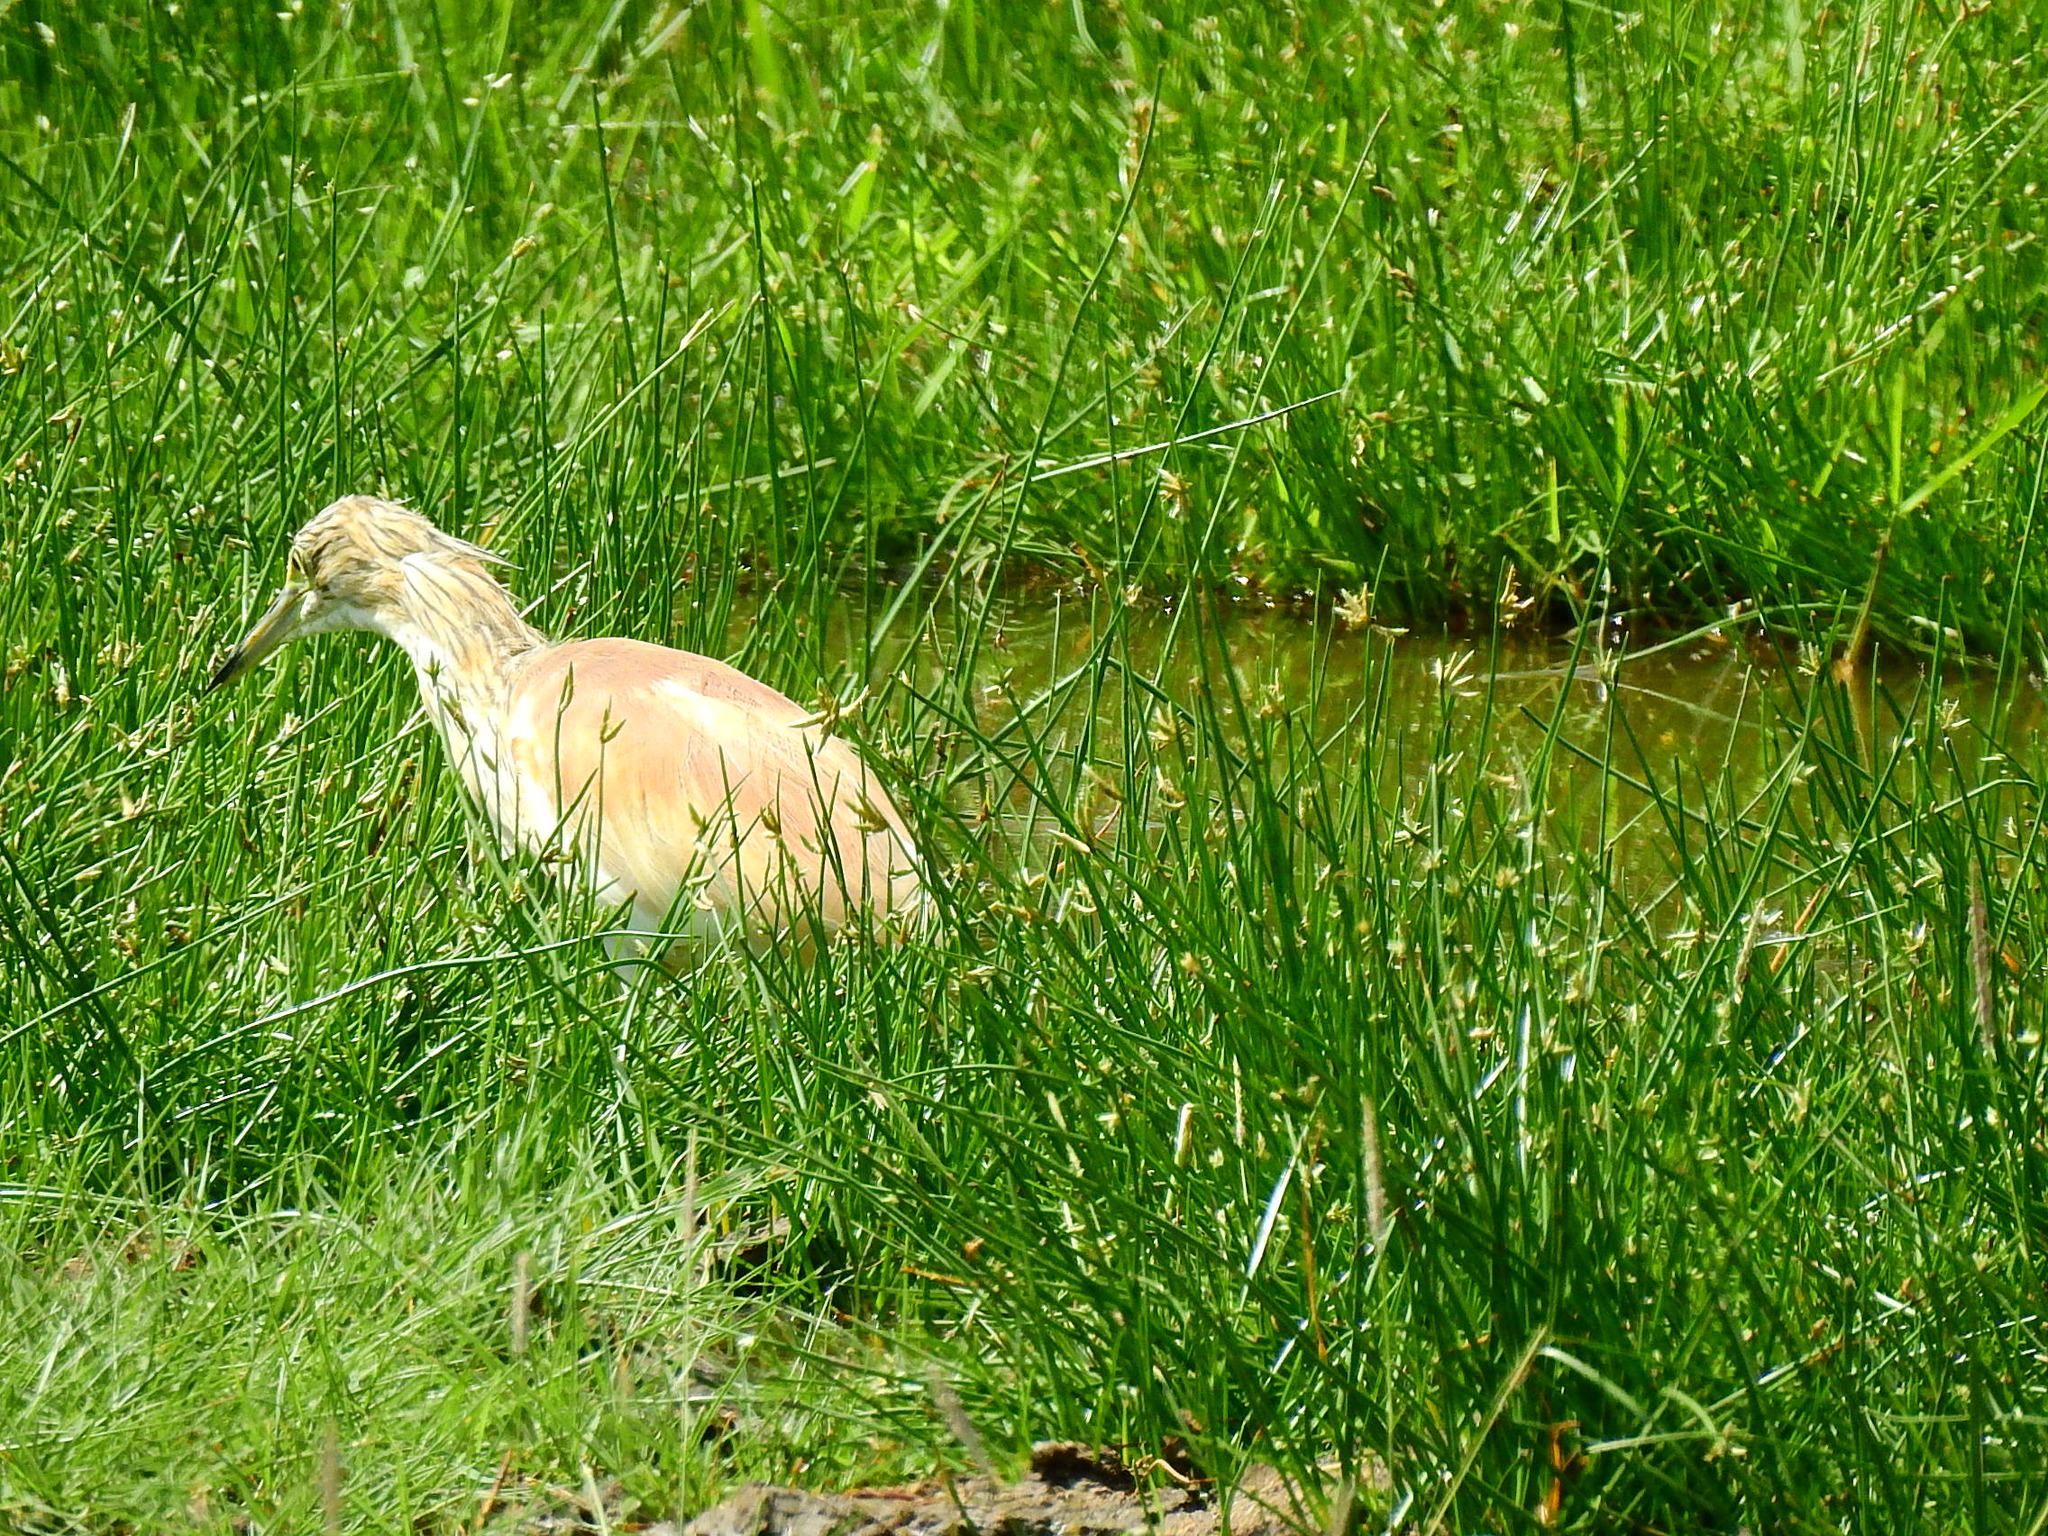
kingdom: Animalia
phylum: Chordata
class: Aves
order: Pelecaniformes
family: Ardeidae
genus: Ardeola
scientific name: Ardeola ralloides
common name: Squacco heron
